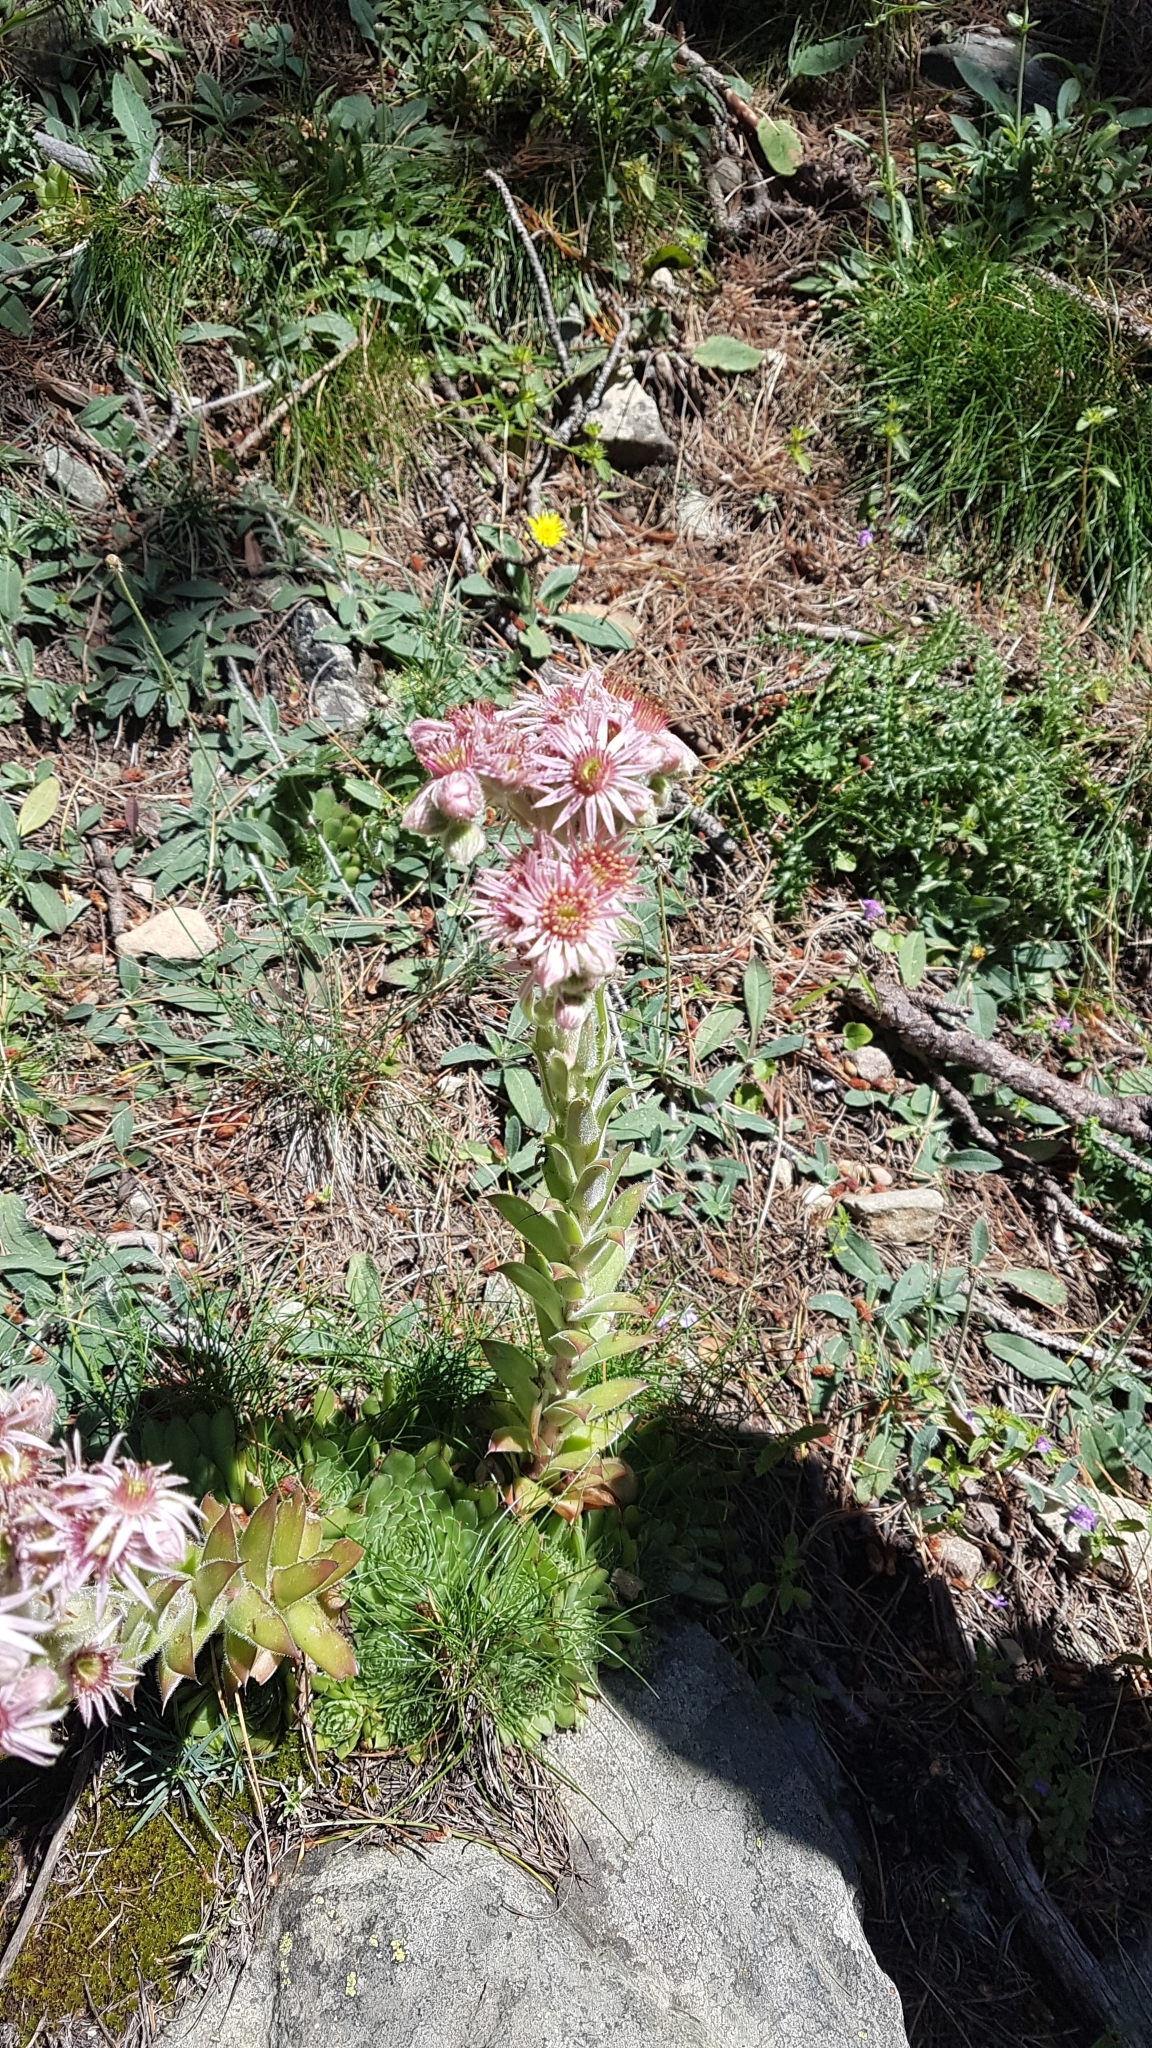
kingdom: Plantae
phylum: Tracheophyta
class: Magnoliopsida
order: Saxifragales
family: Crassulaceae
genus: Sempervivum
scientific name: Sempervivum tectorum
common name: House-leek
